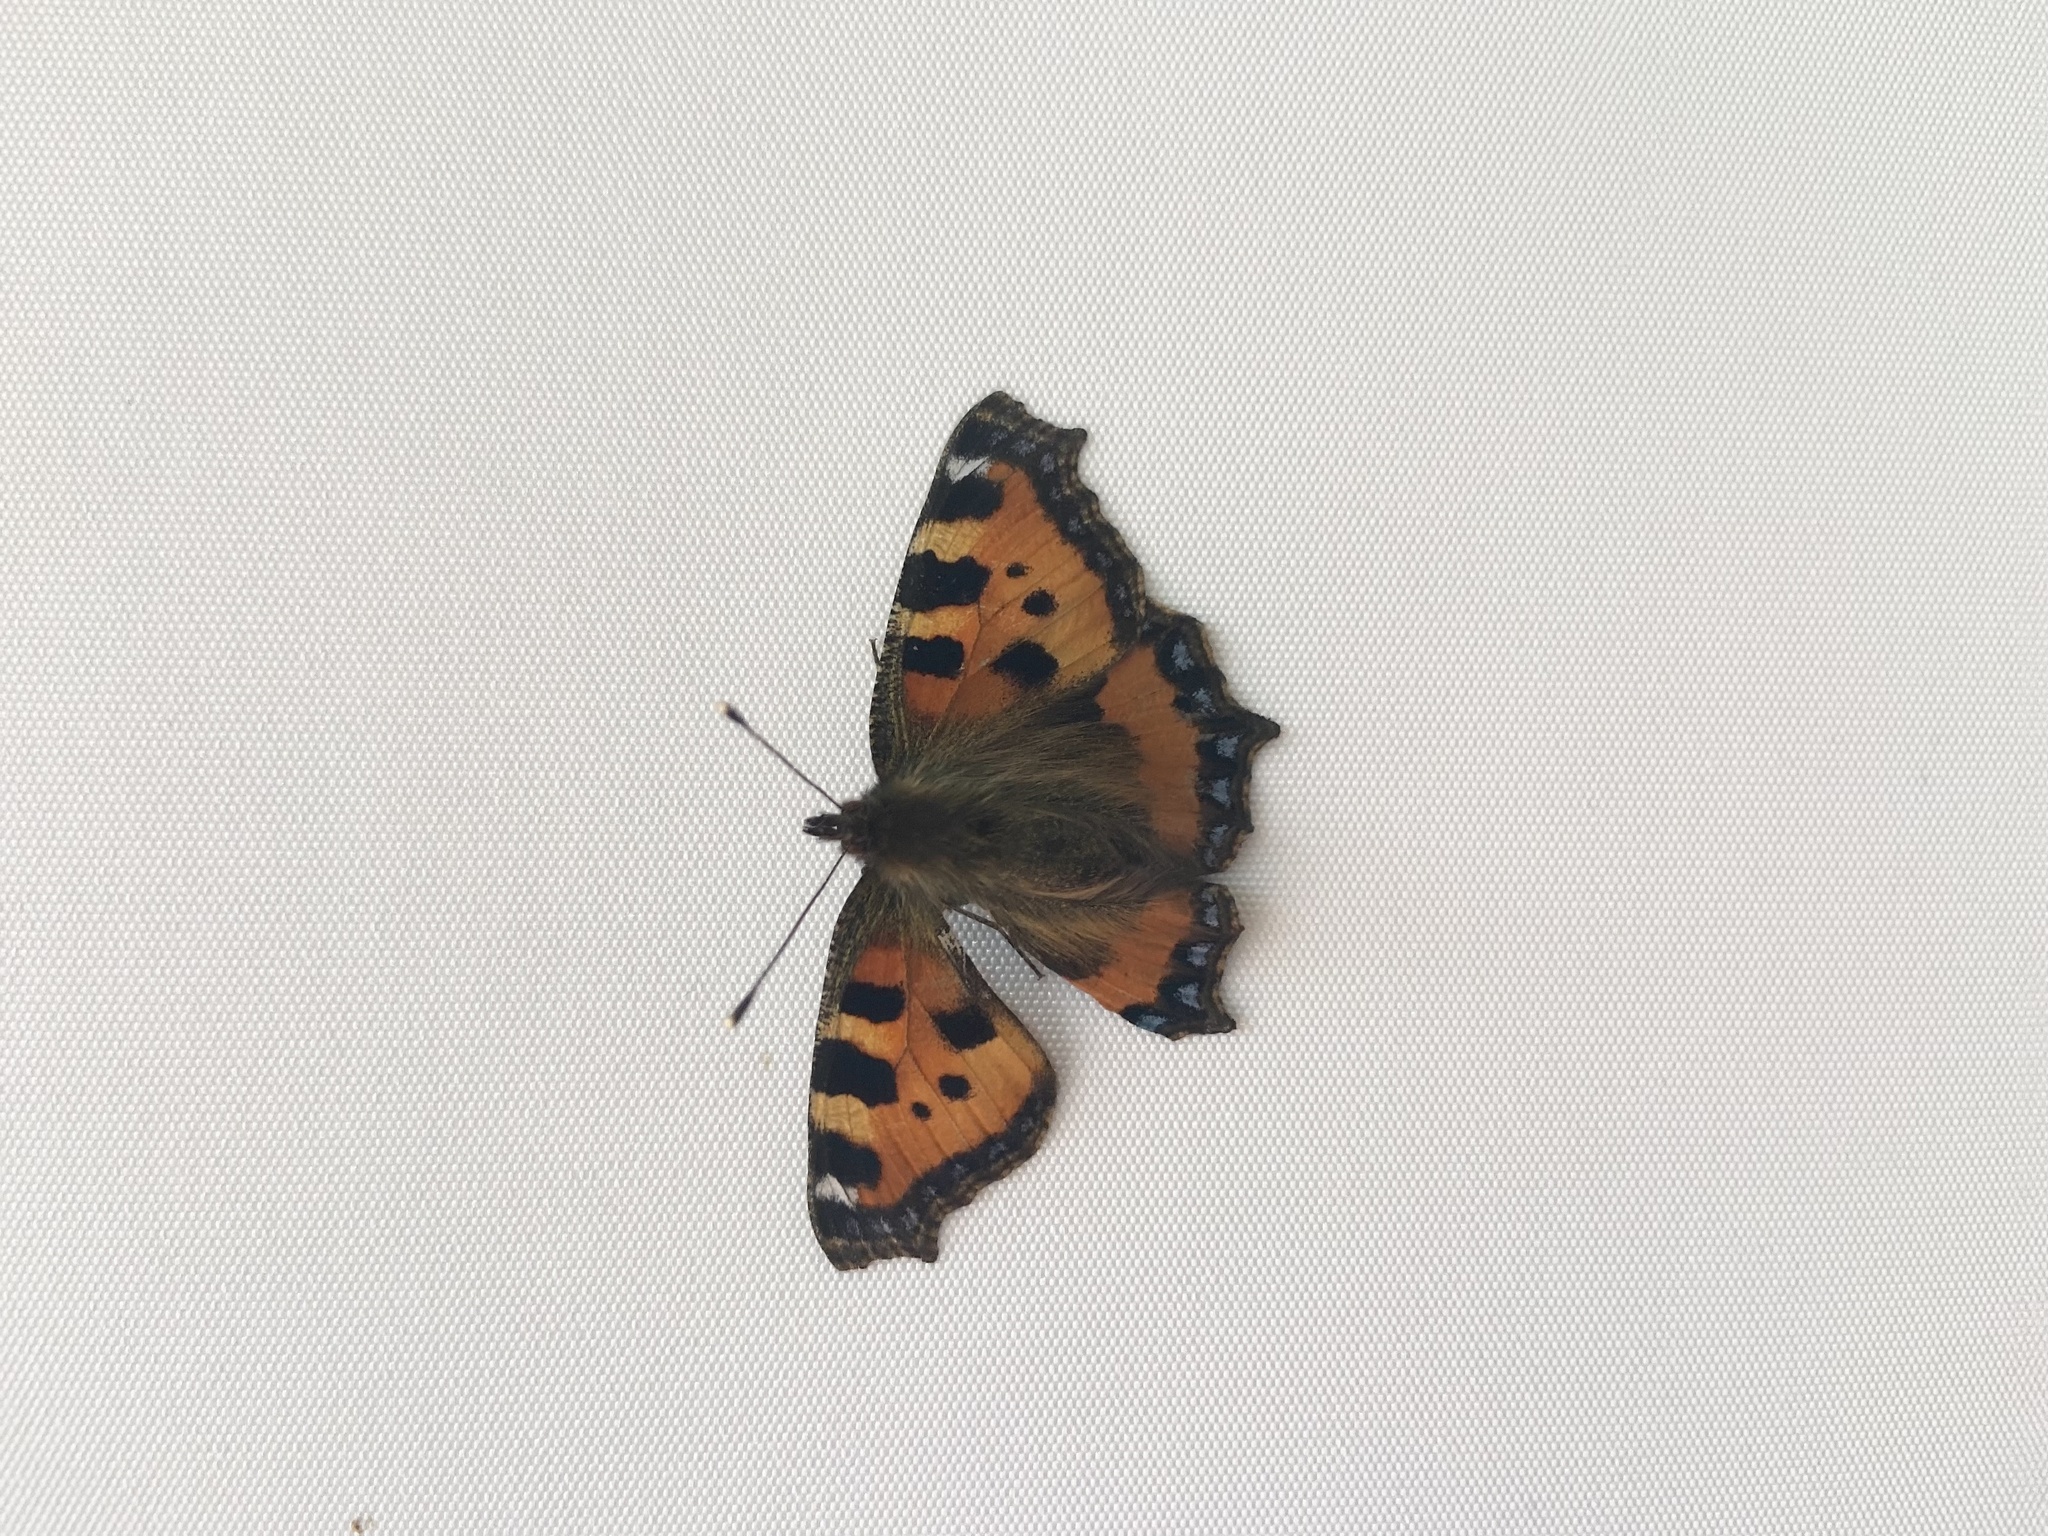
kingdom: Animalia
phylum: Arthropoda
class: Insecta
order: Lepidoptera
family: Nymphalidae
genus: Aglais
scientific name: Aglais urticae
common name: Small tortoiseshell
